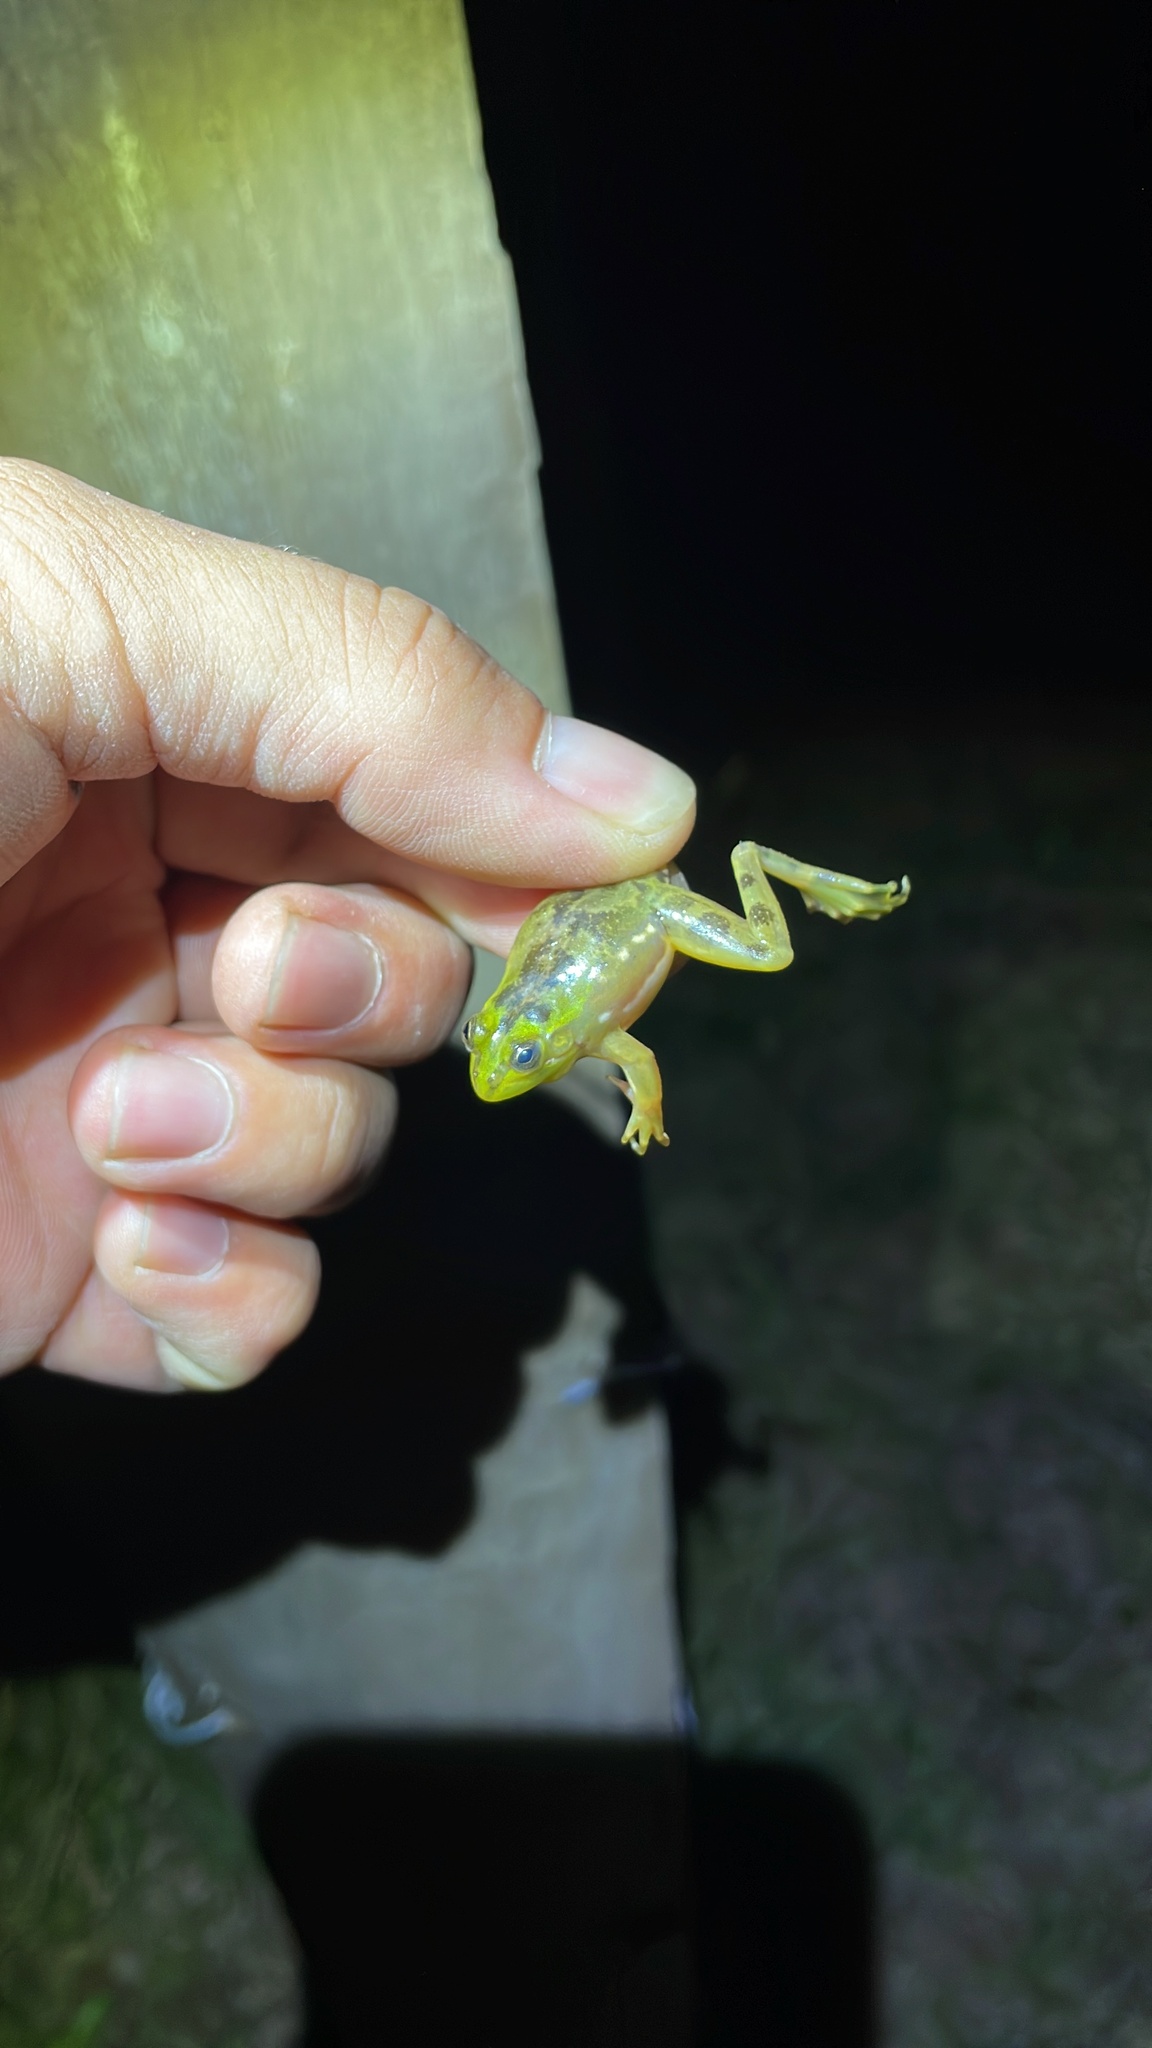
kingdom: Animalia
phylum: Chordata
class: Amphibia
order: Anura
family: Hylidae
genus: Pseudis
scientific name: Pseudis minuta
